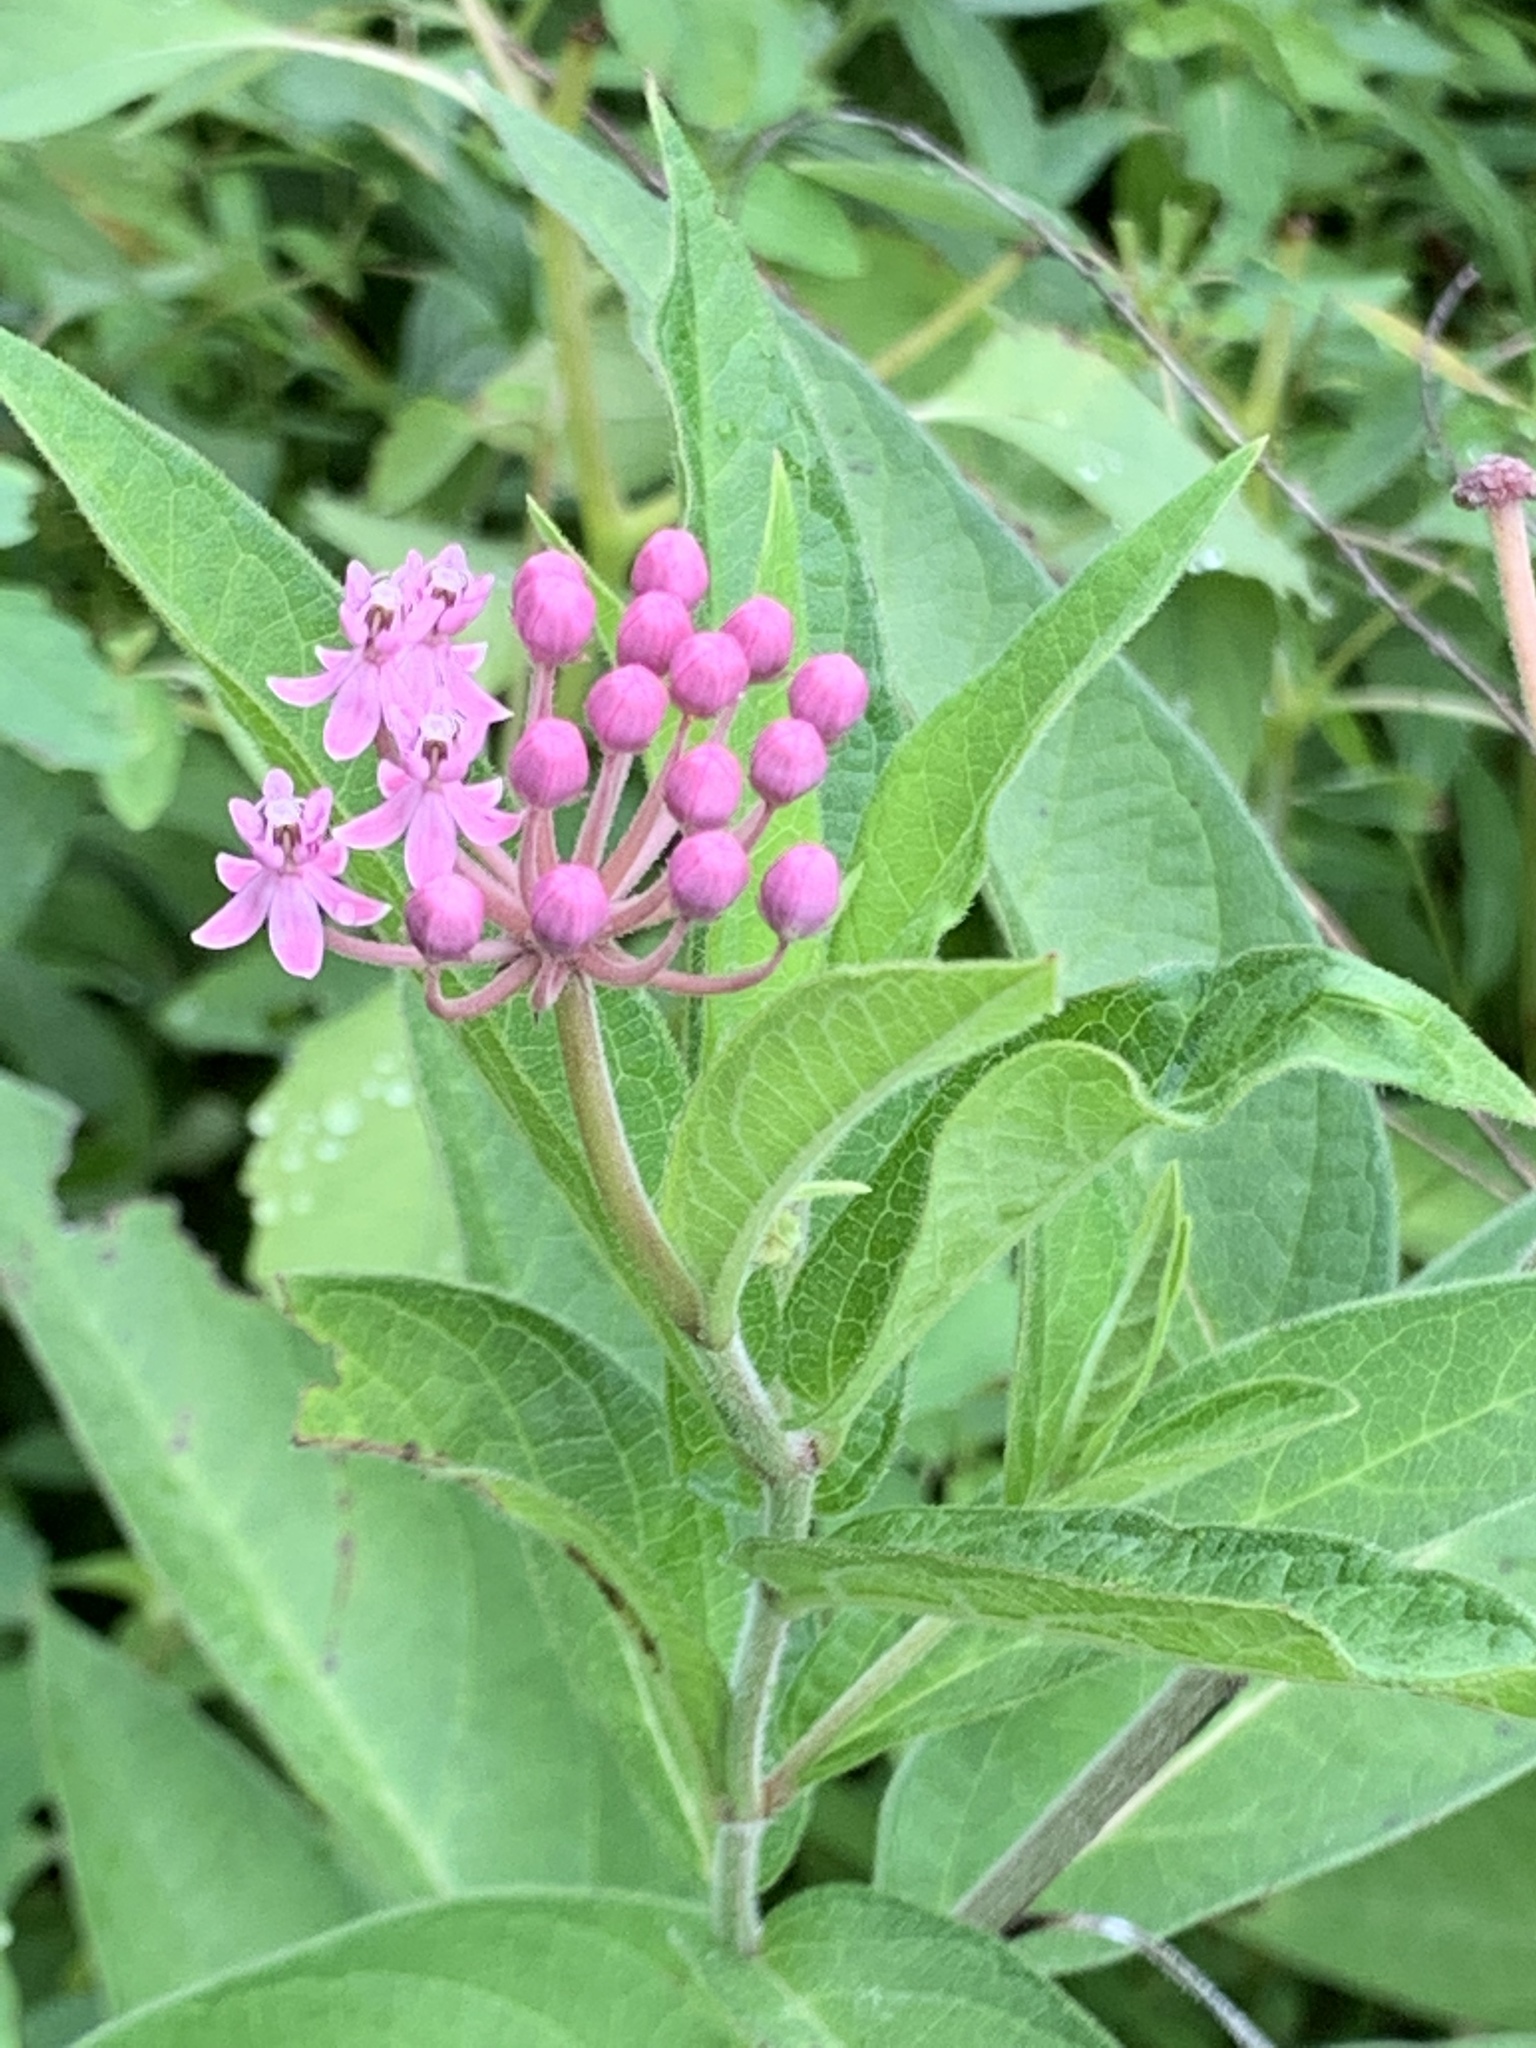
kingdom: Plantae
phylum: Tracheophyta
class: Magnoliopsida
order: Gentianales
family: Apocynaceae
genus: Asclepias
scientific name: Asclepias incarnata
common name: Swamp milkweed
